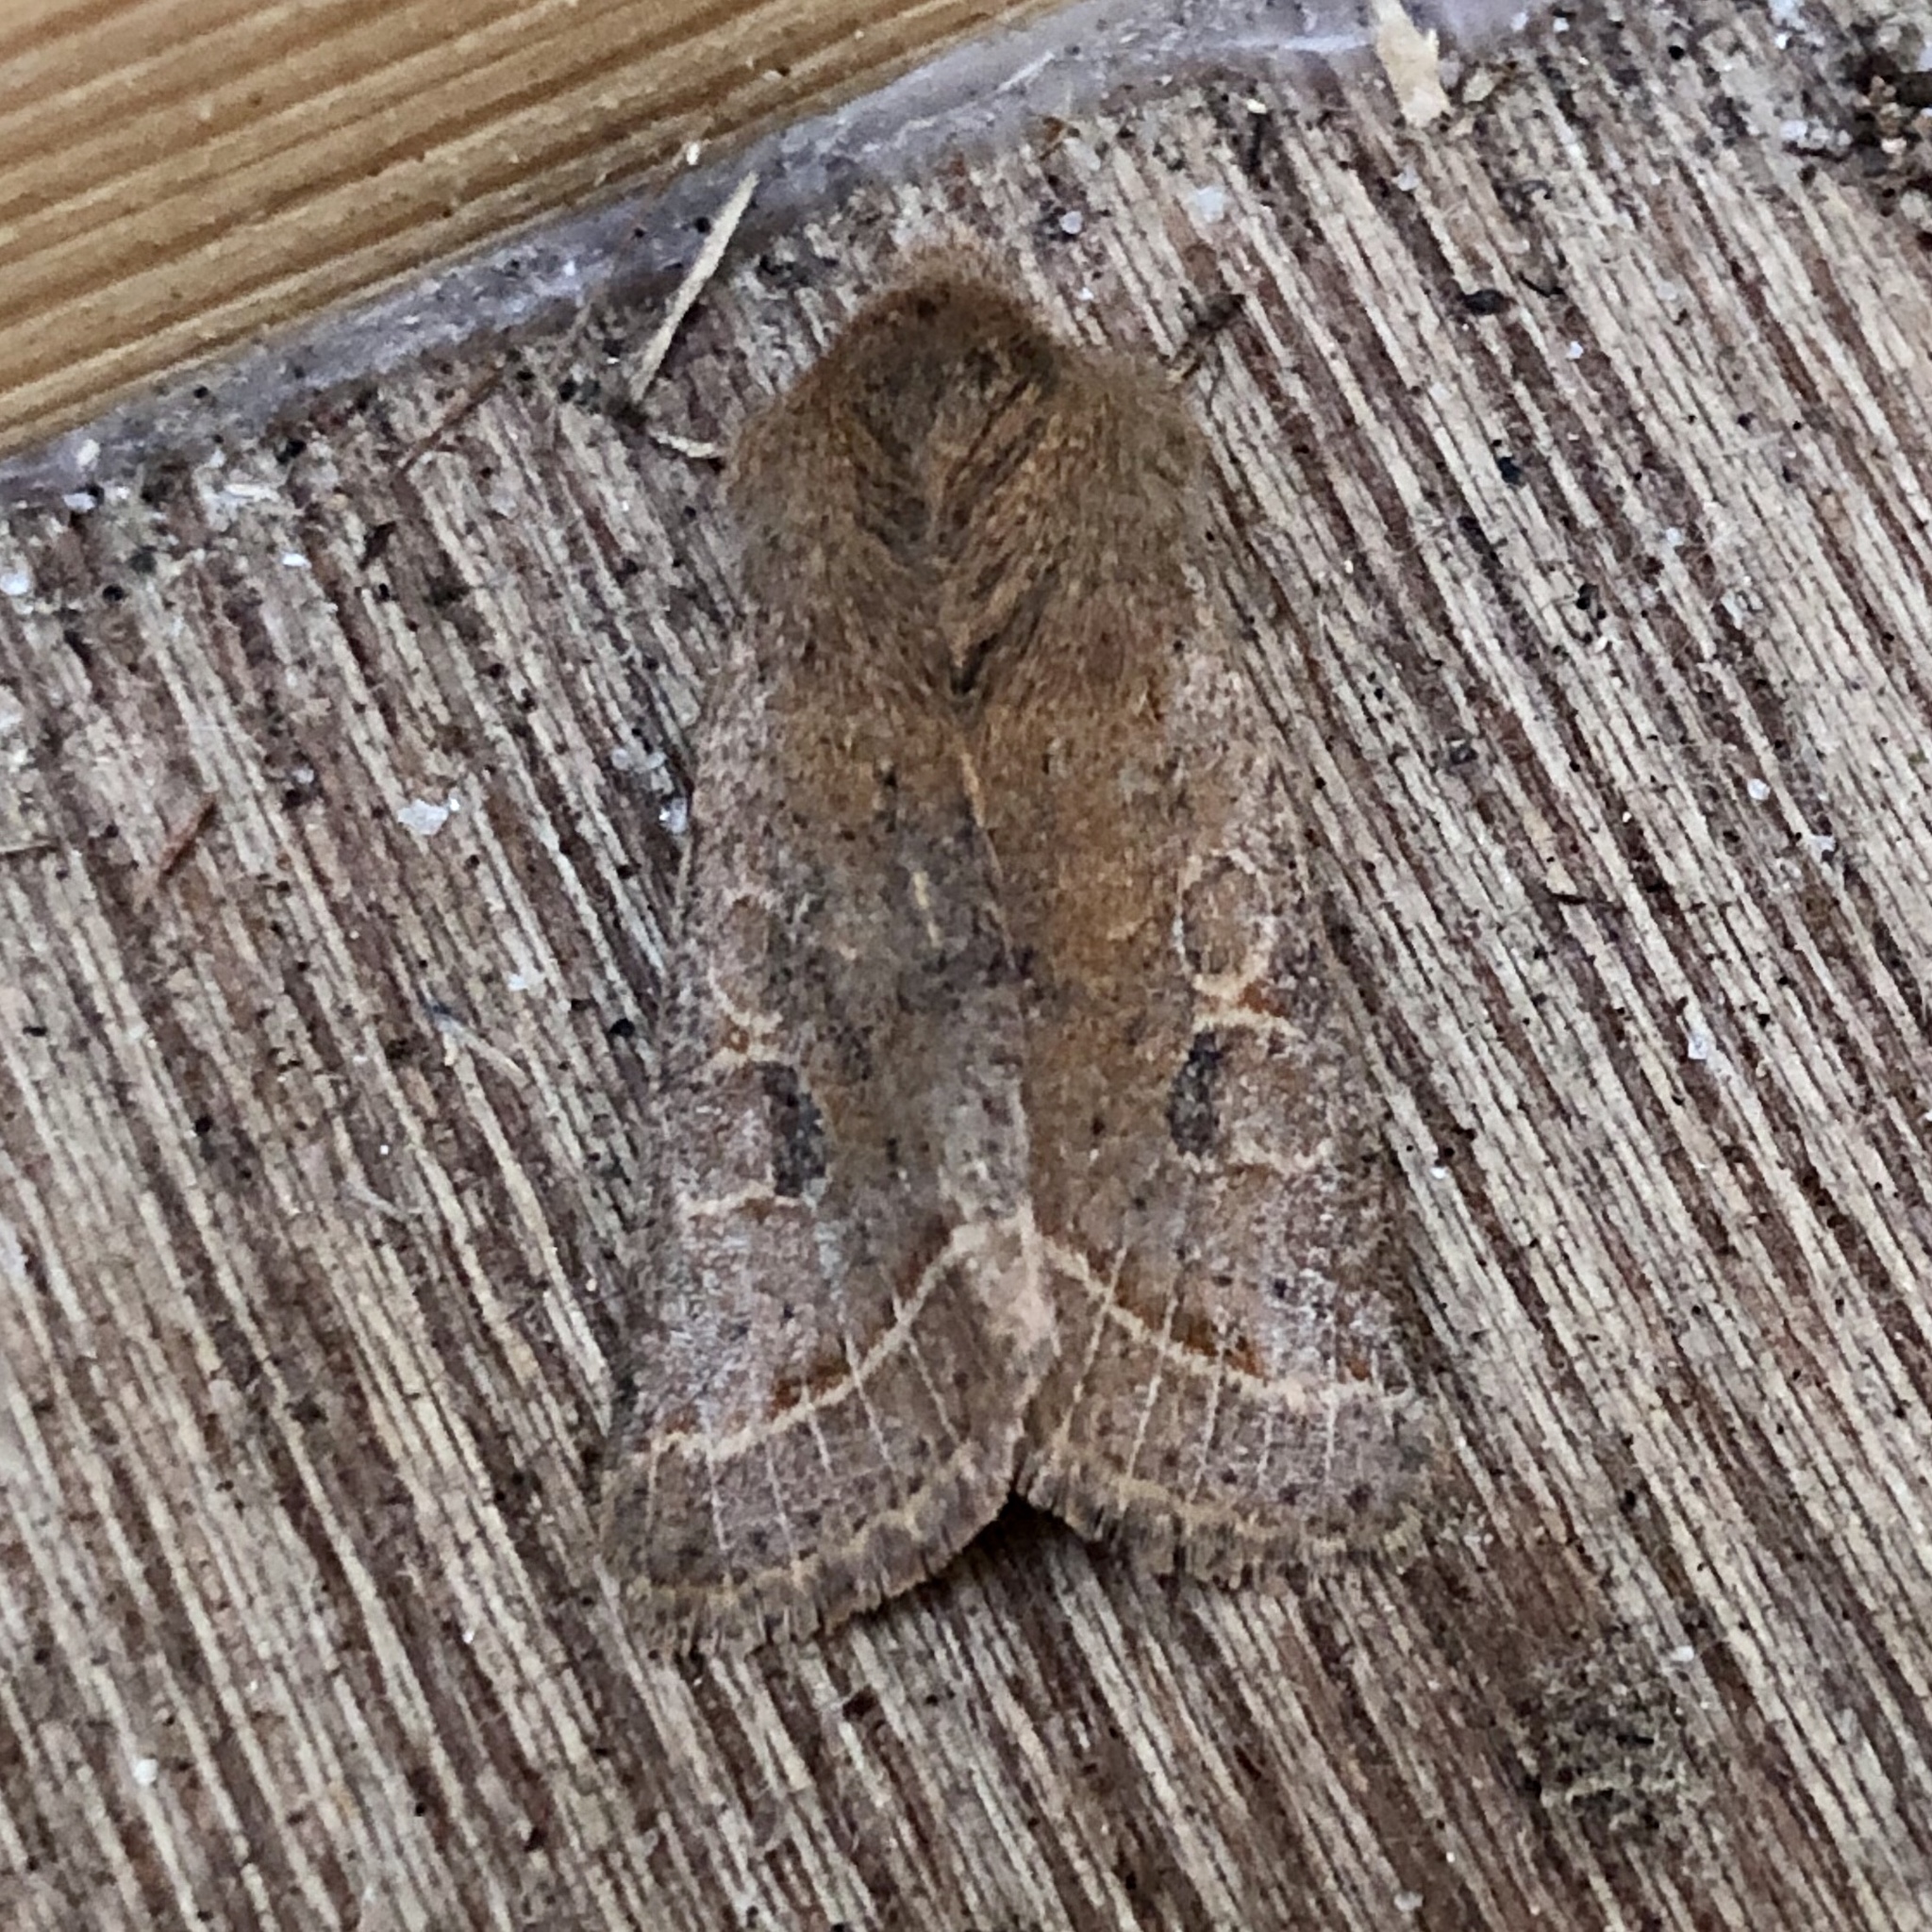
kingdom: Animalia
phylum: Arthropoda
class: Insecta
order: Lepidoptera
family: Noctuidae
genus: Orthosia
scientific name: Orthosia cerasi
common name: Common quaker
